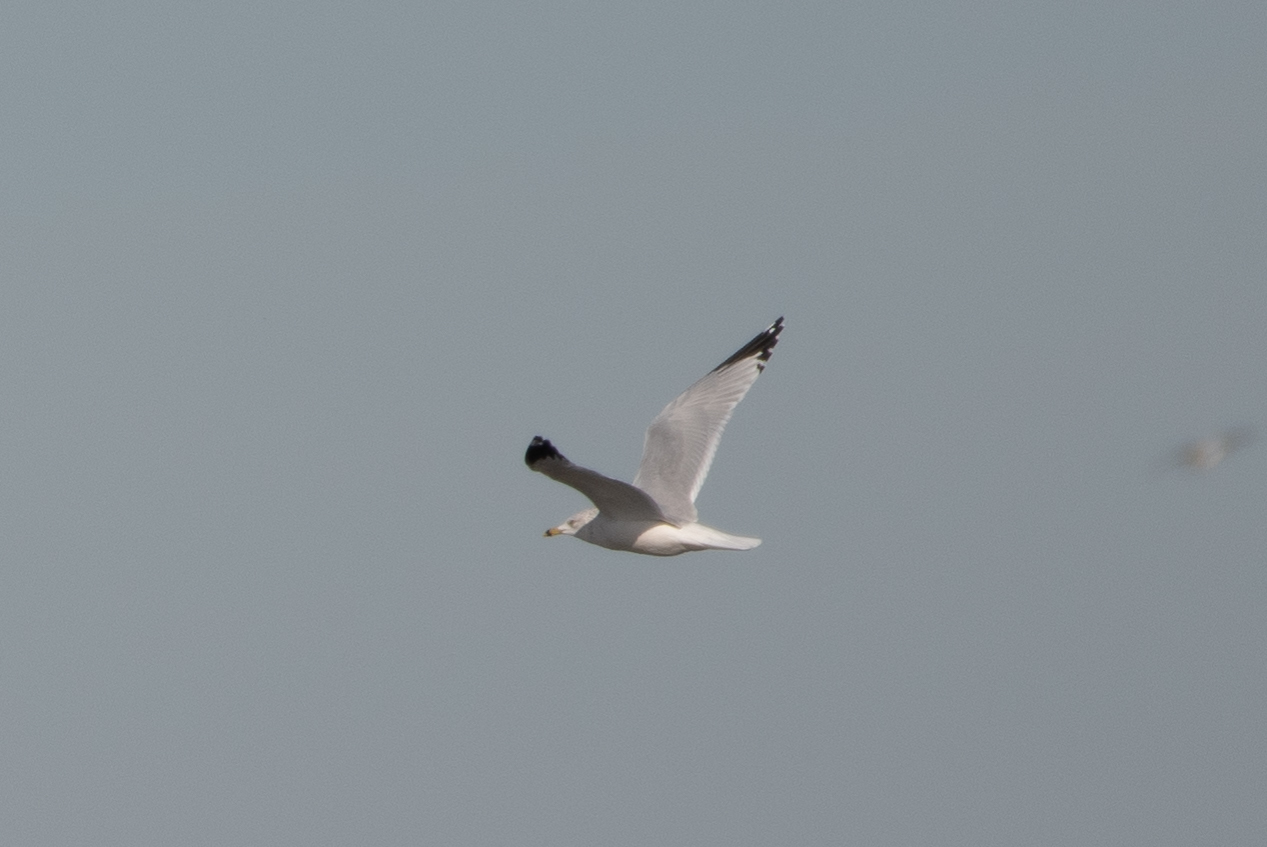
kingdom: Animalia
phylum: Chordata
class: Aves
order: Charadriiformes
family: Laridae
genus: Larus
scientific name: Larus delawarensis
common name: Ring-billed gull
